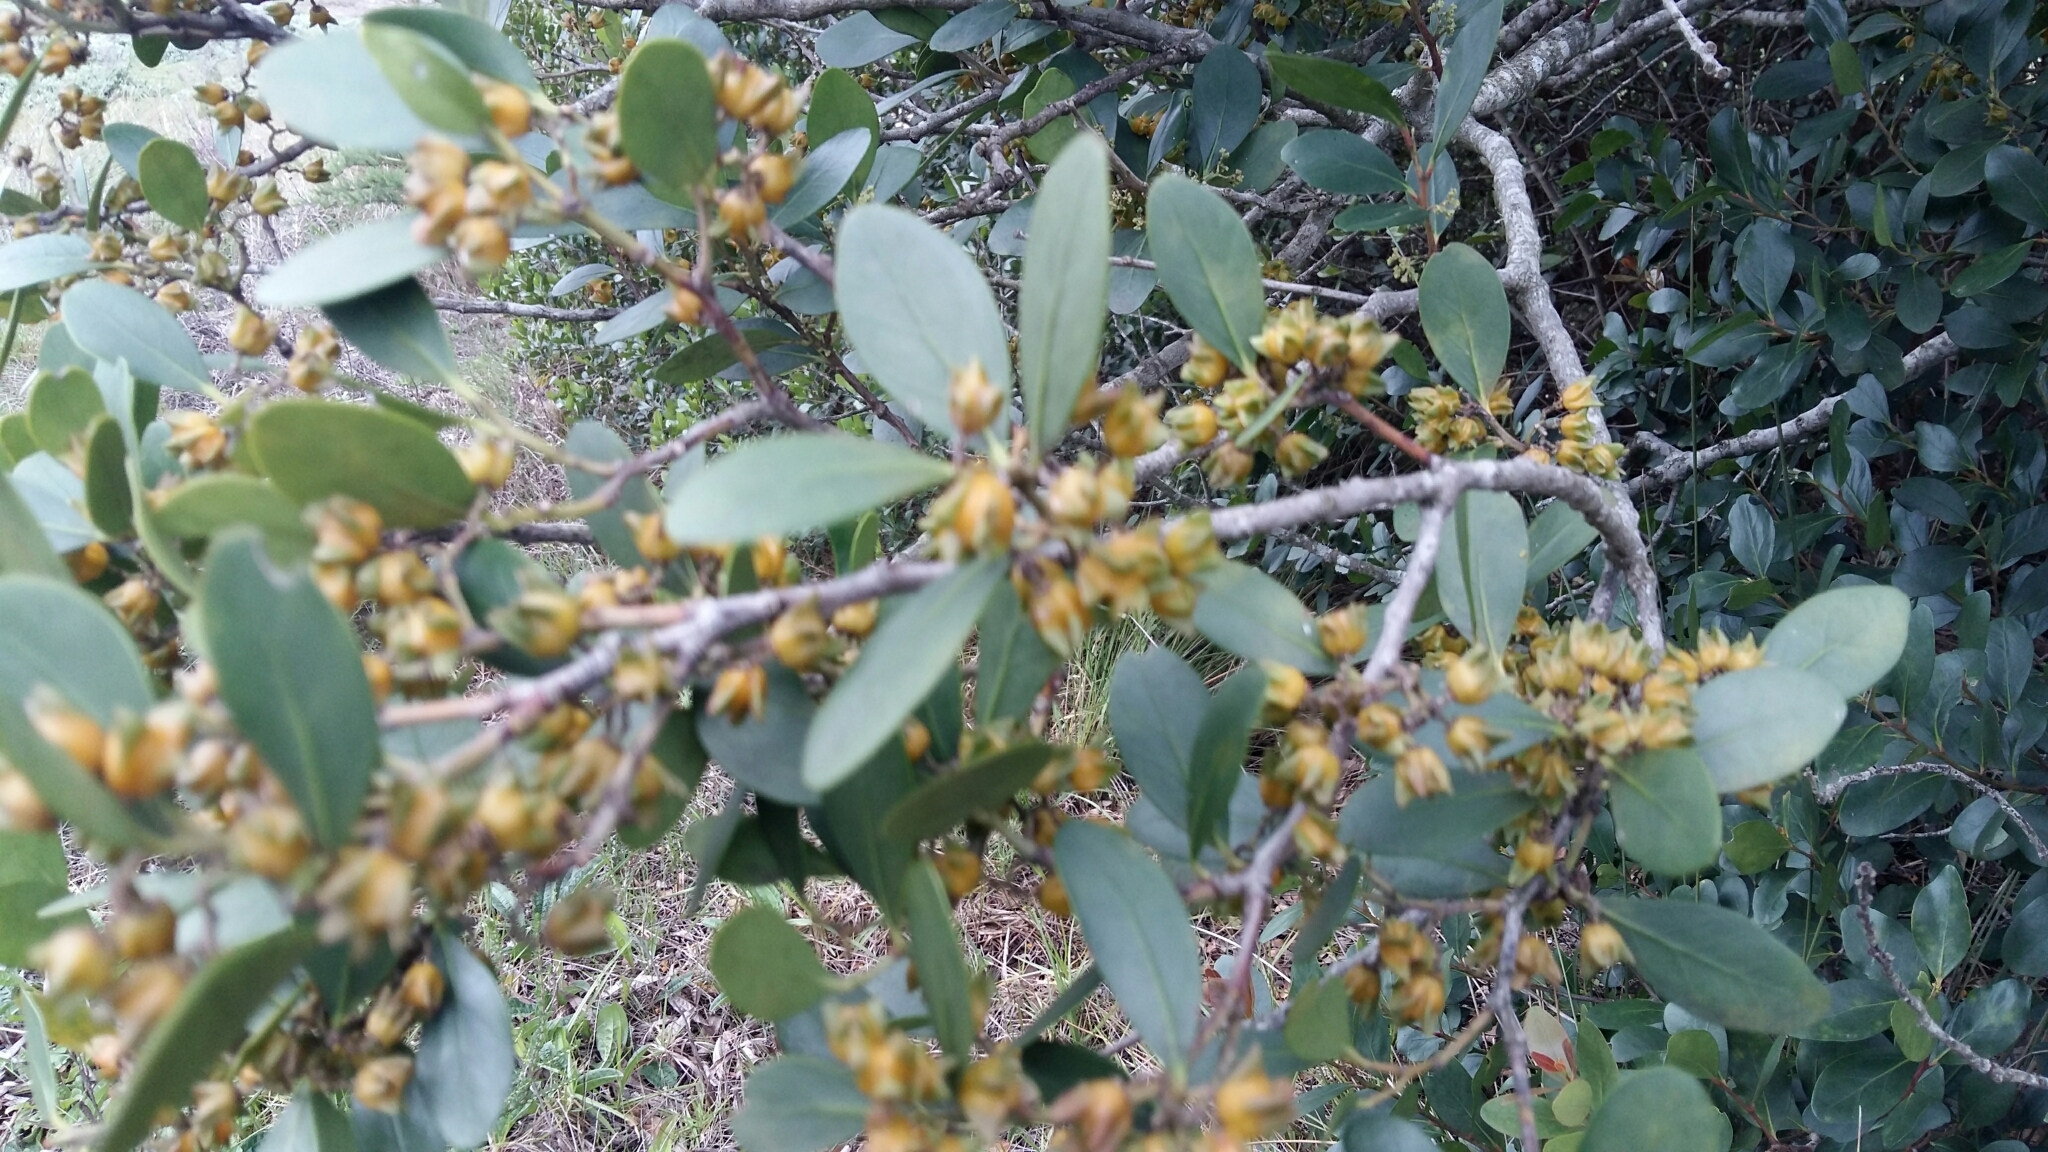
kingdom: Plantae
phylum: Tracheophyta
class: Magnoliopsida
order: Celastrales
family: Celastraceae
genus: Pterocelastrus
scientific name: Pterocelastrus tricuspidatus
